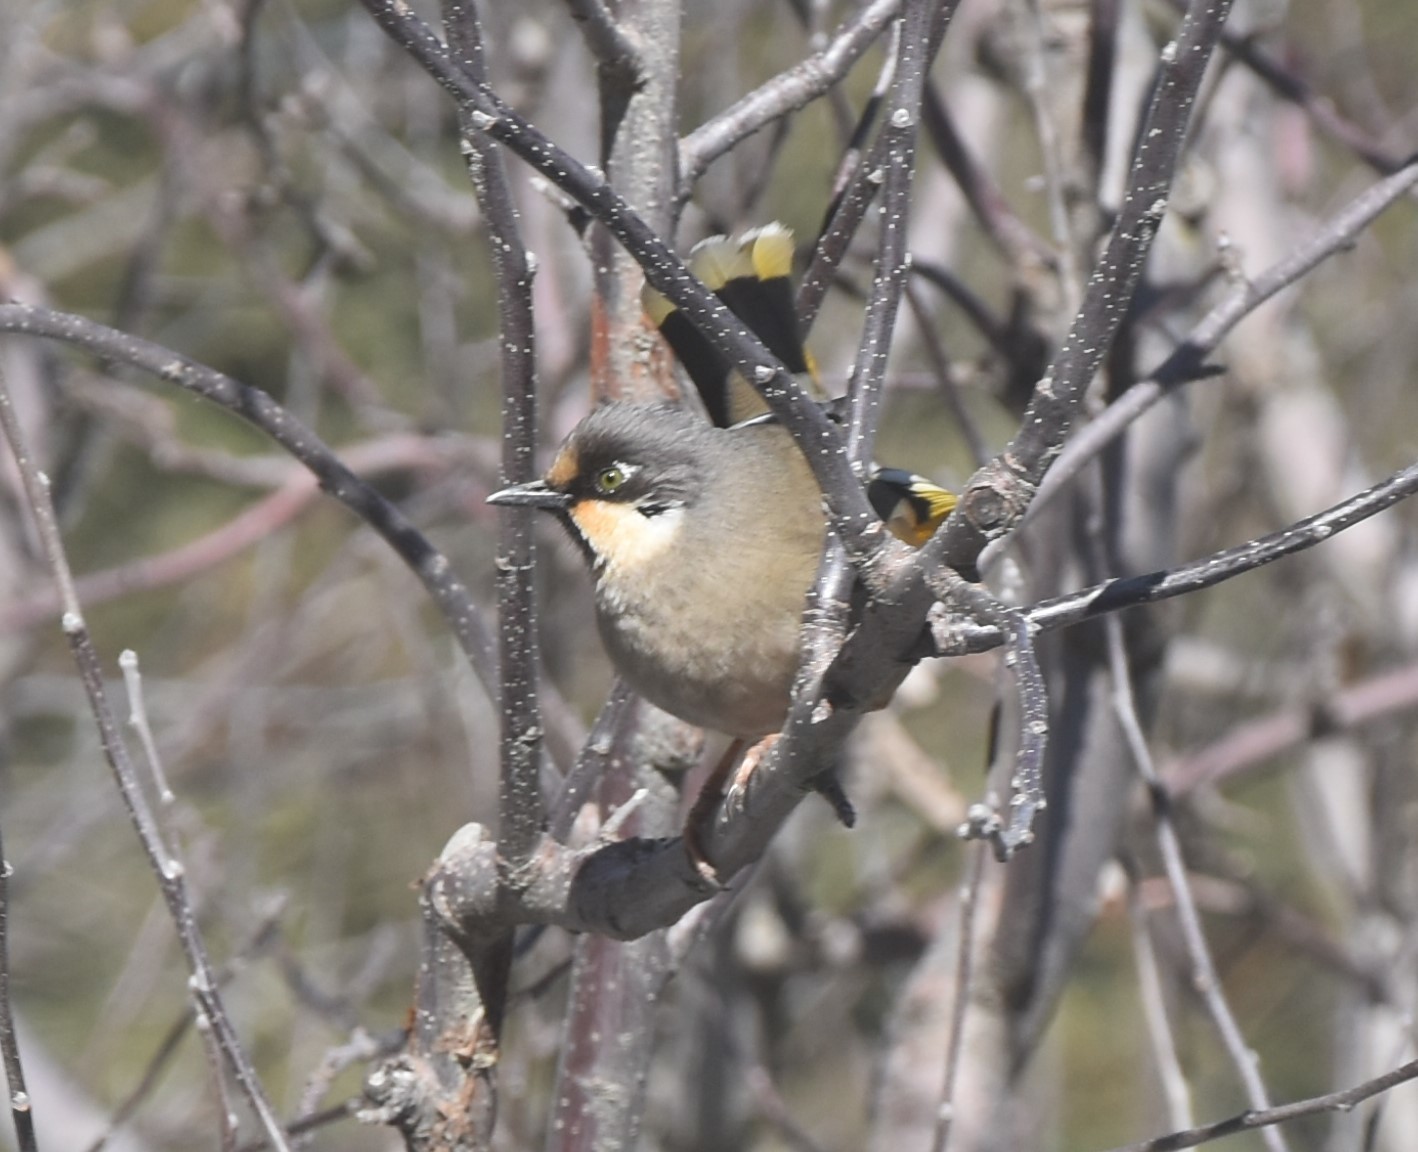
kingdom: Animalia
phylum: Chordata
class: Aves
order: Passeriformes
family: Leiothrichidae
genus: Trochalopteron
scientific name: Trochalopteron variegatum
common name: Variegated laughingthrush
